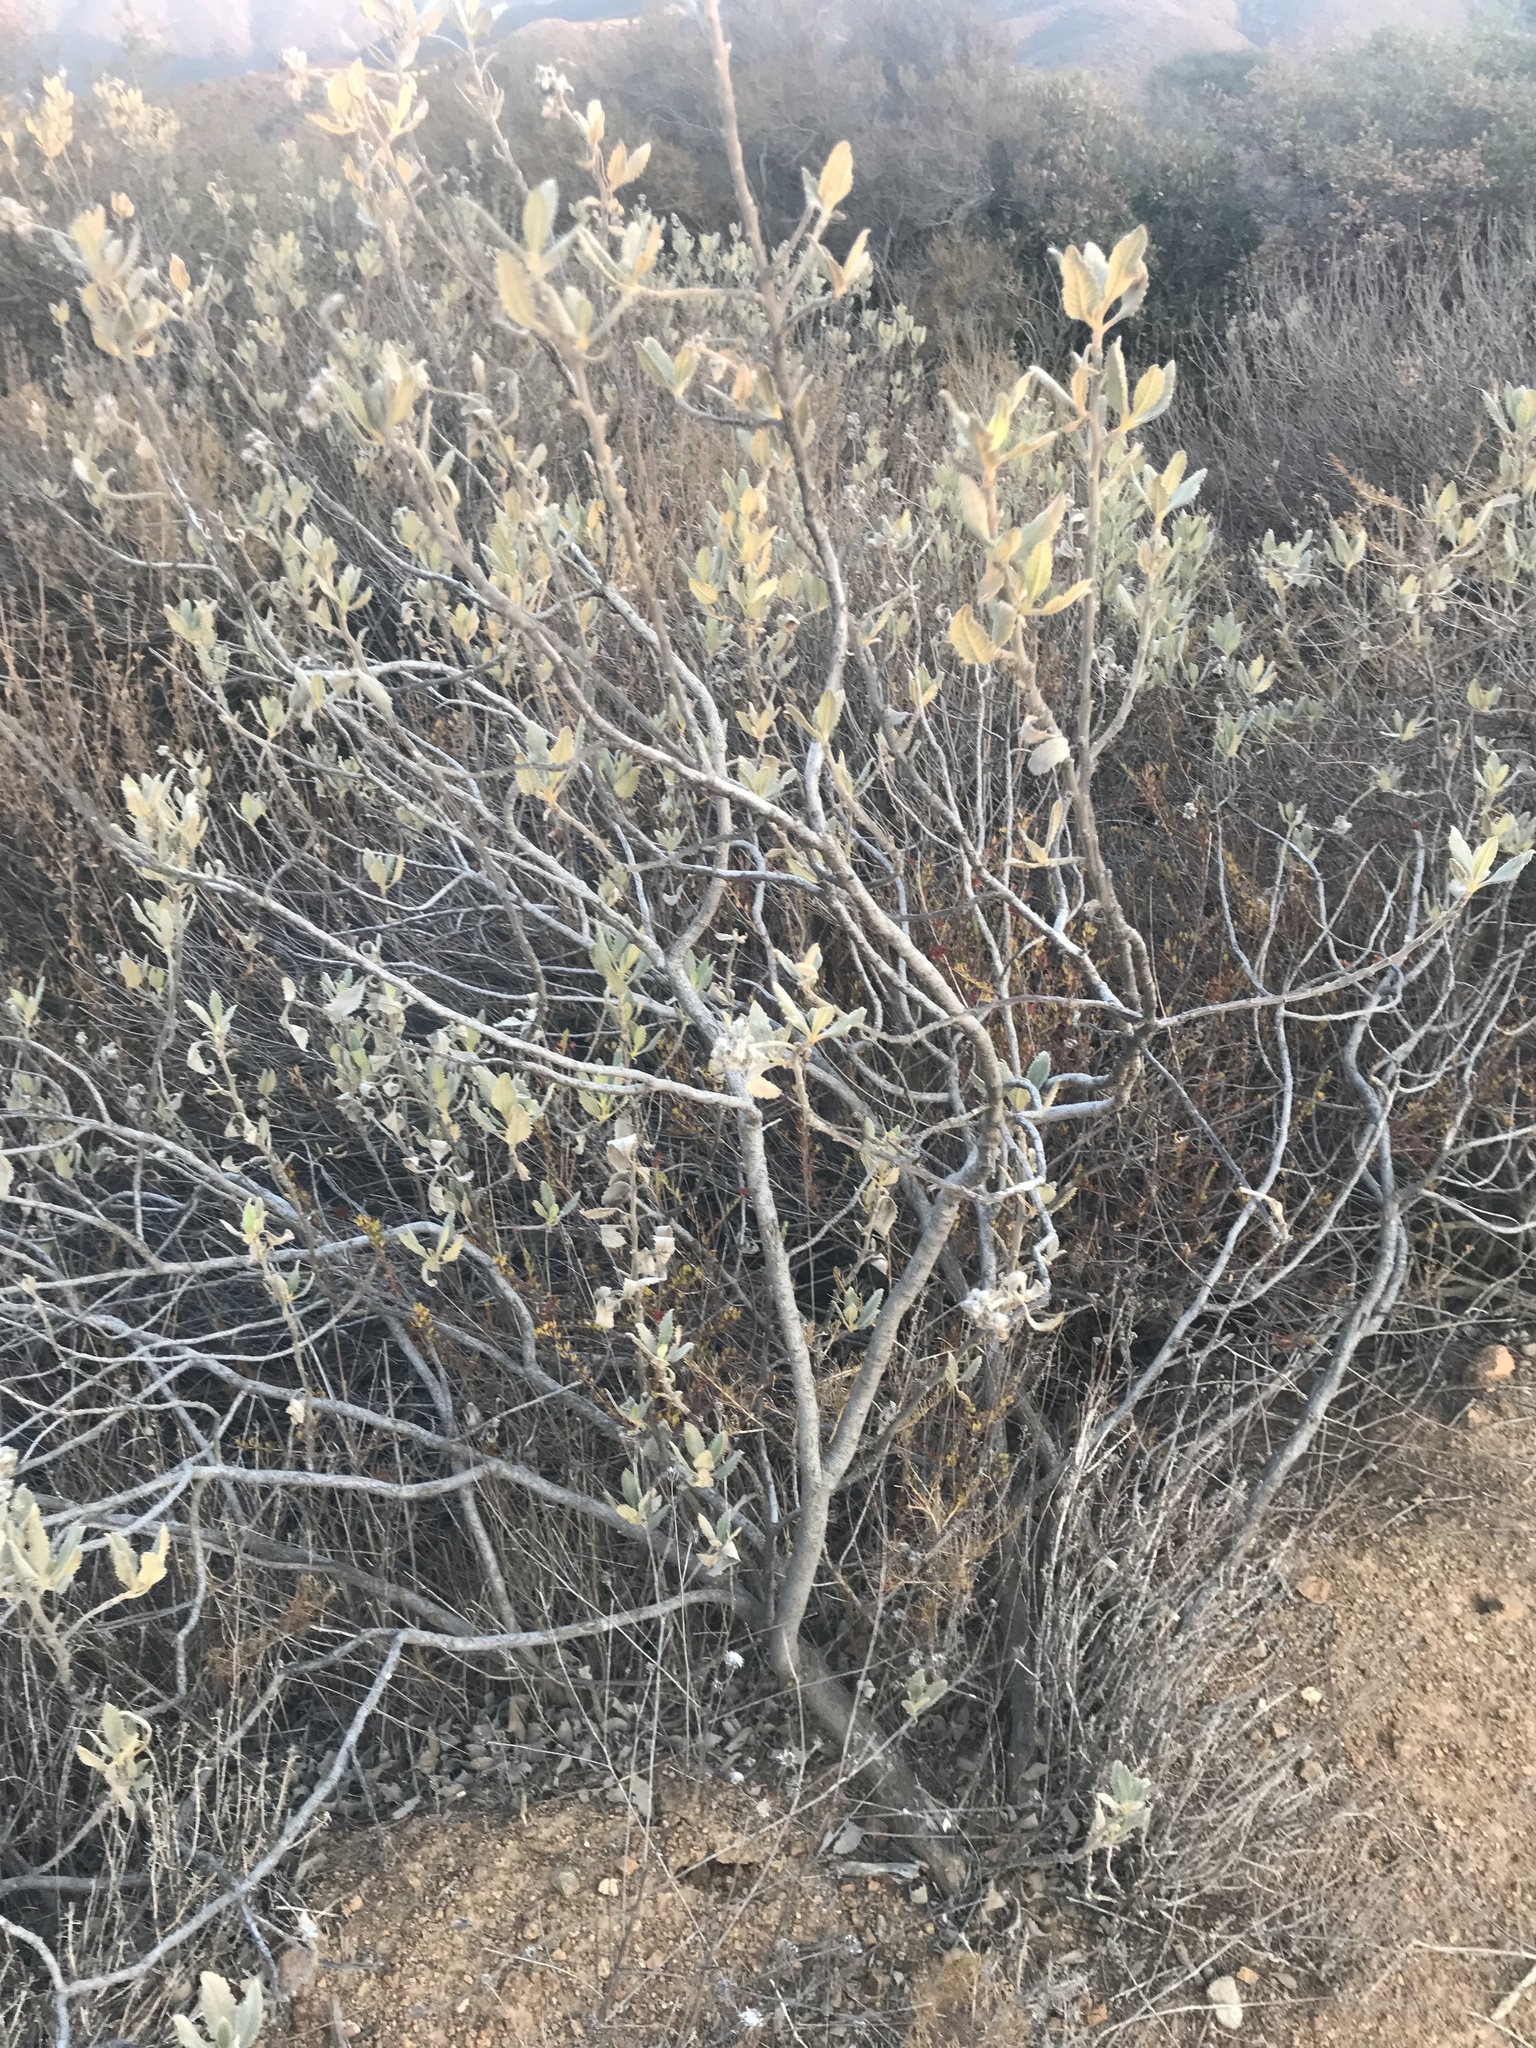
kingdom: Plantae
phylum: Tracheophyta
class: Magnoliopsida
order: Boraginales
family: Namaceae
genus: Eriodictyon
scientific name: Eriodictyon crassifolium
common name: Thick-leaf yerba-santa
